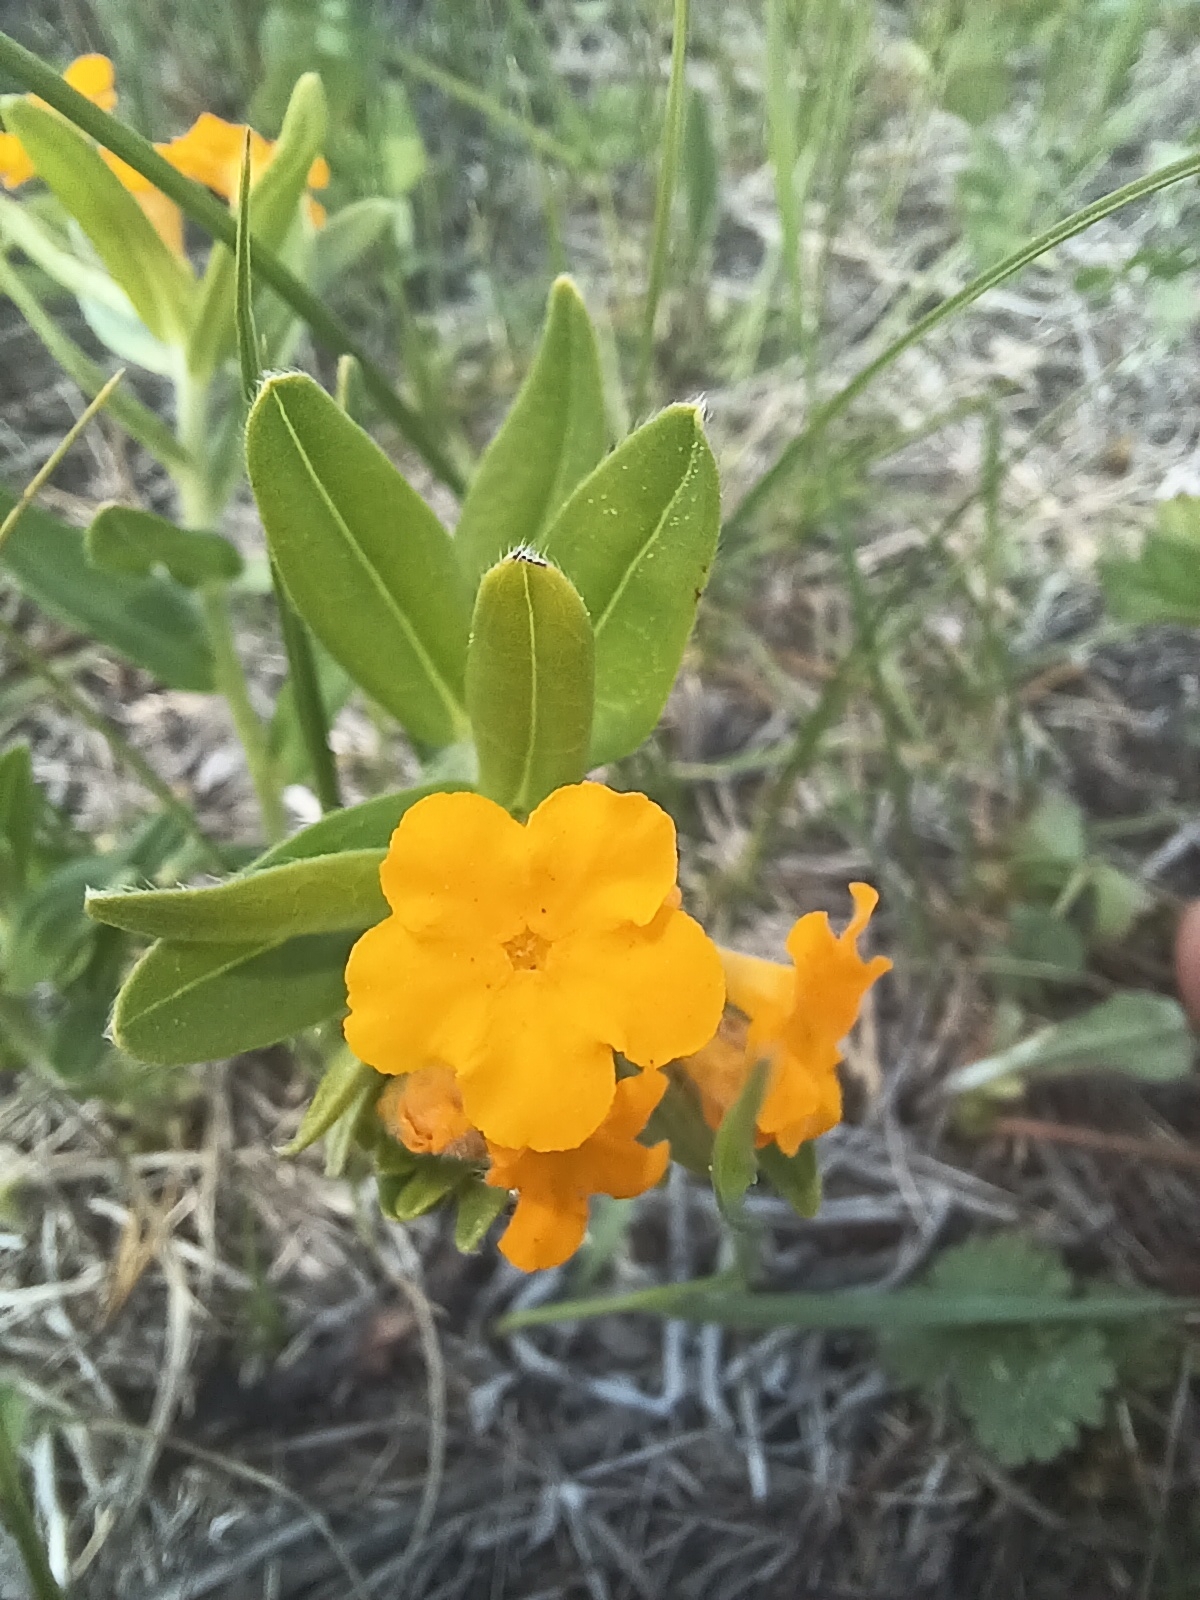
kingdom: Plantae
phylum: Tracheophyta
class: Magnoliopsida
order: Boraginales
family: Boraginaceae
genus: Lithospermum
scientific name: Lithospermum canescens
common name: Hoary puccoon
